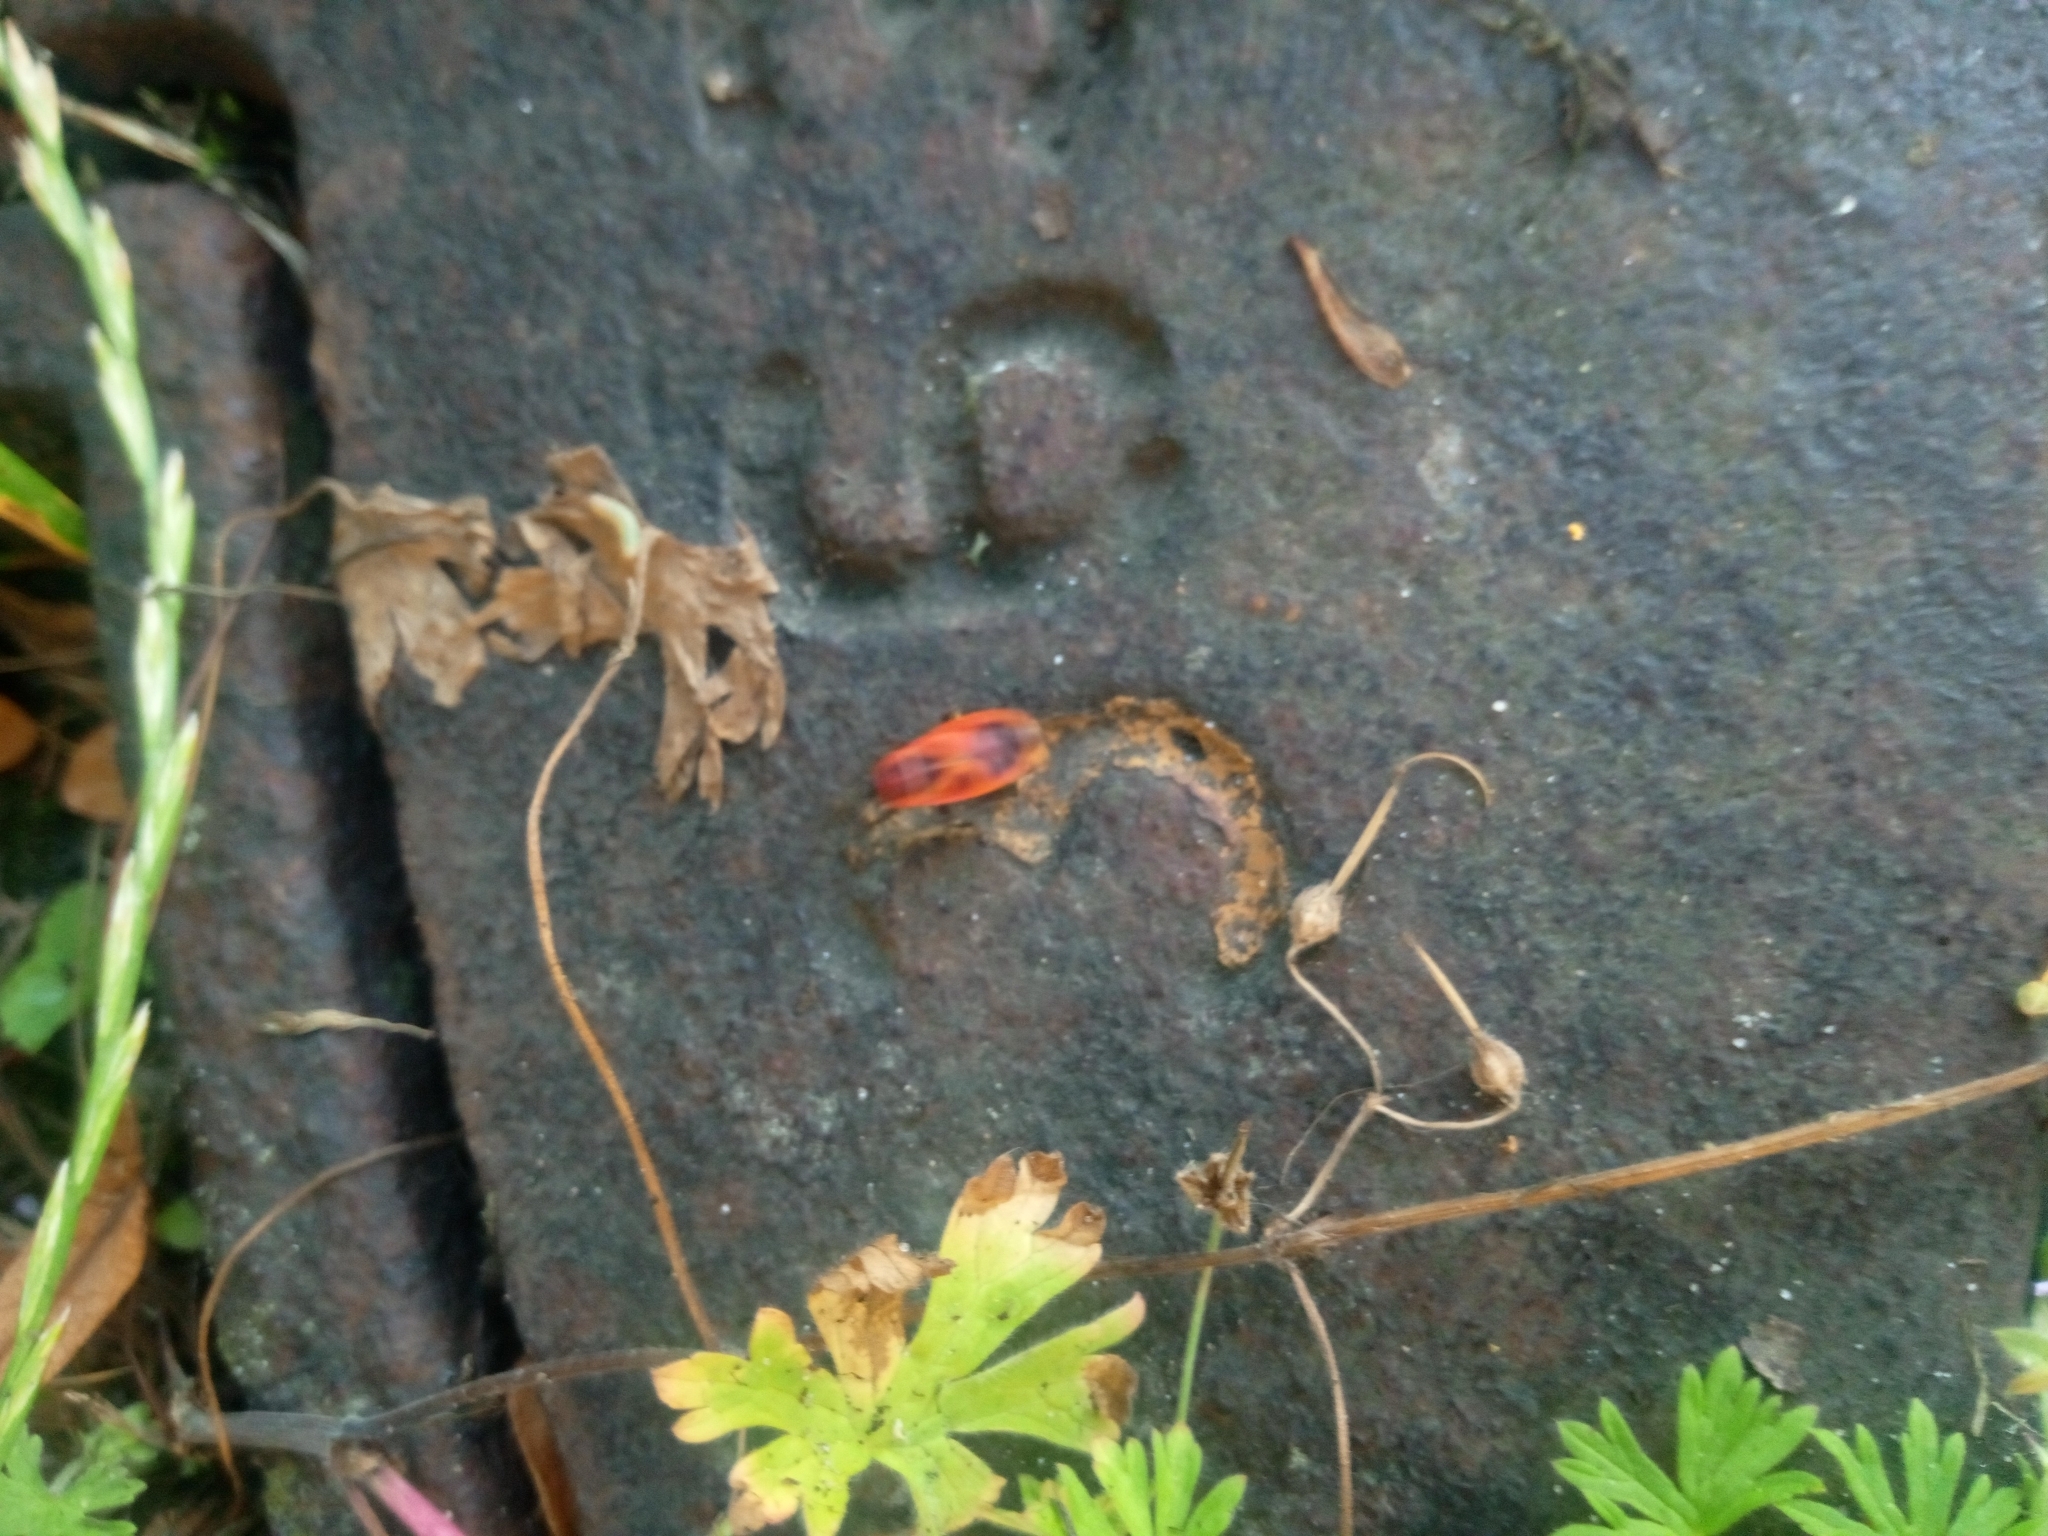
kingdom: Animalia
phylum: Arthropoda
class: Insecta
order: Hemiptera
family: Pyrrhocoridae
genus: Pyrrhocoris
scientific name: Pyrrhocoris apterus
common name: Firebug
